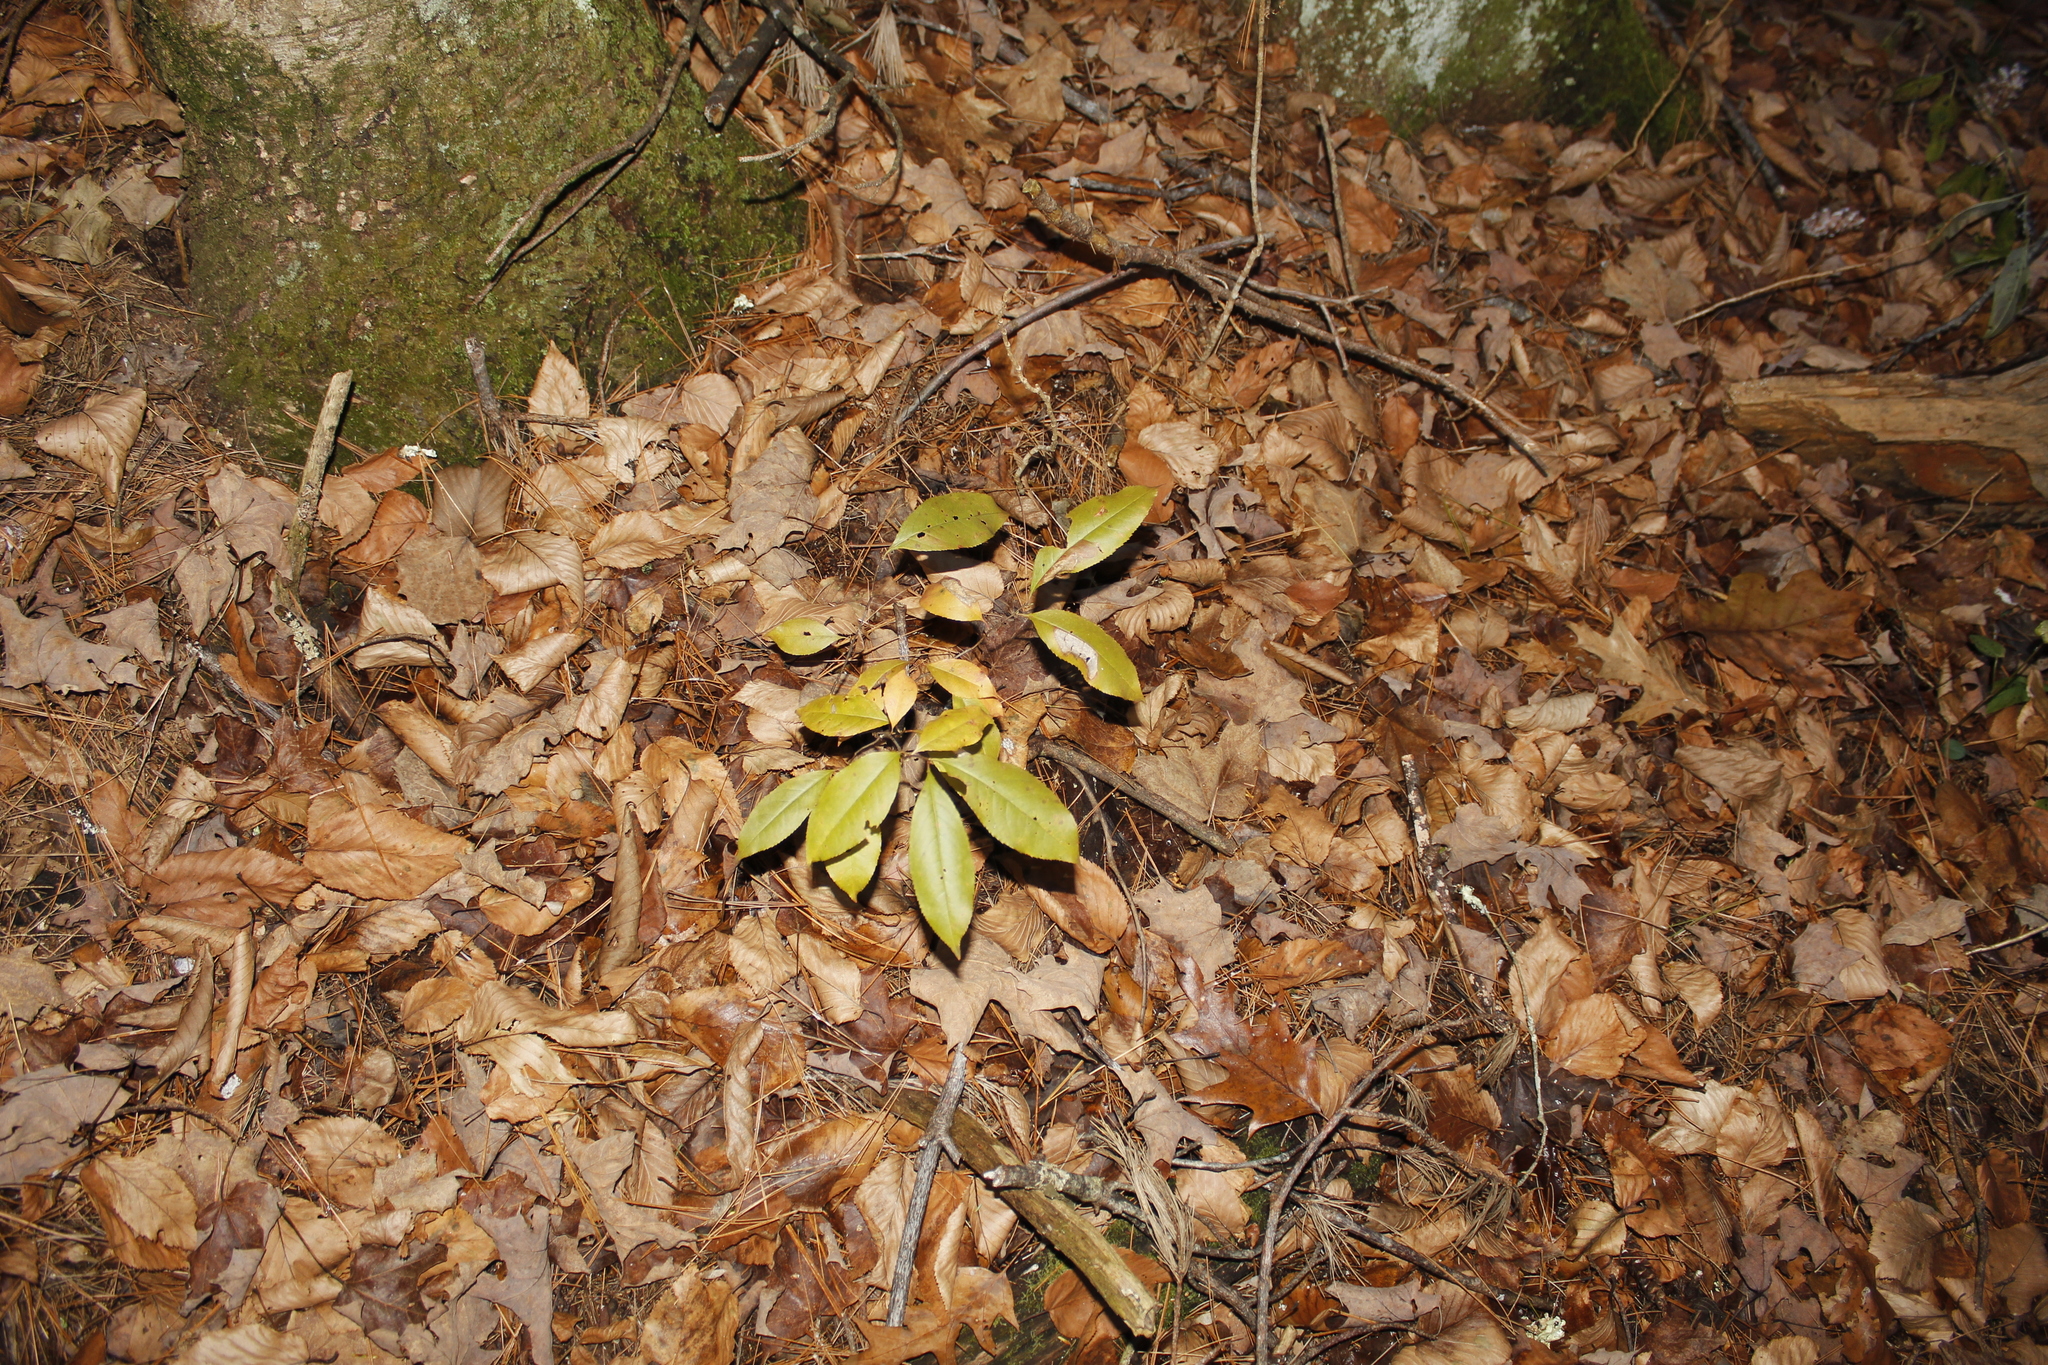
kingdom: Plantae
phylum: Tracheophyta
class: Magnoliopsida
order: Rosales
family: Rosaceae
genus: Prunus
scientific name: Prunus serotina
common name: Black cherry
